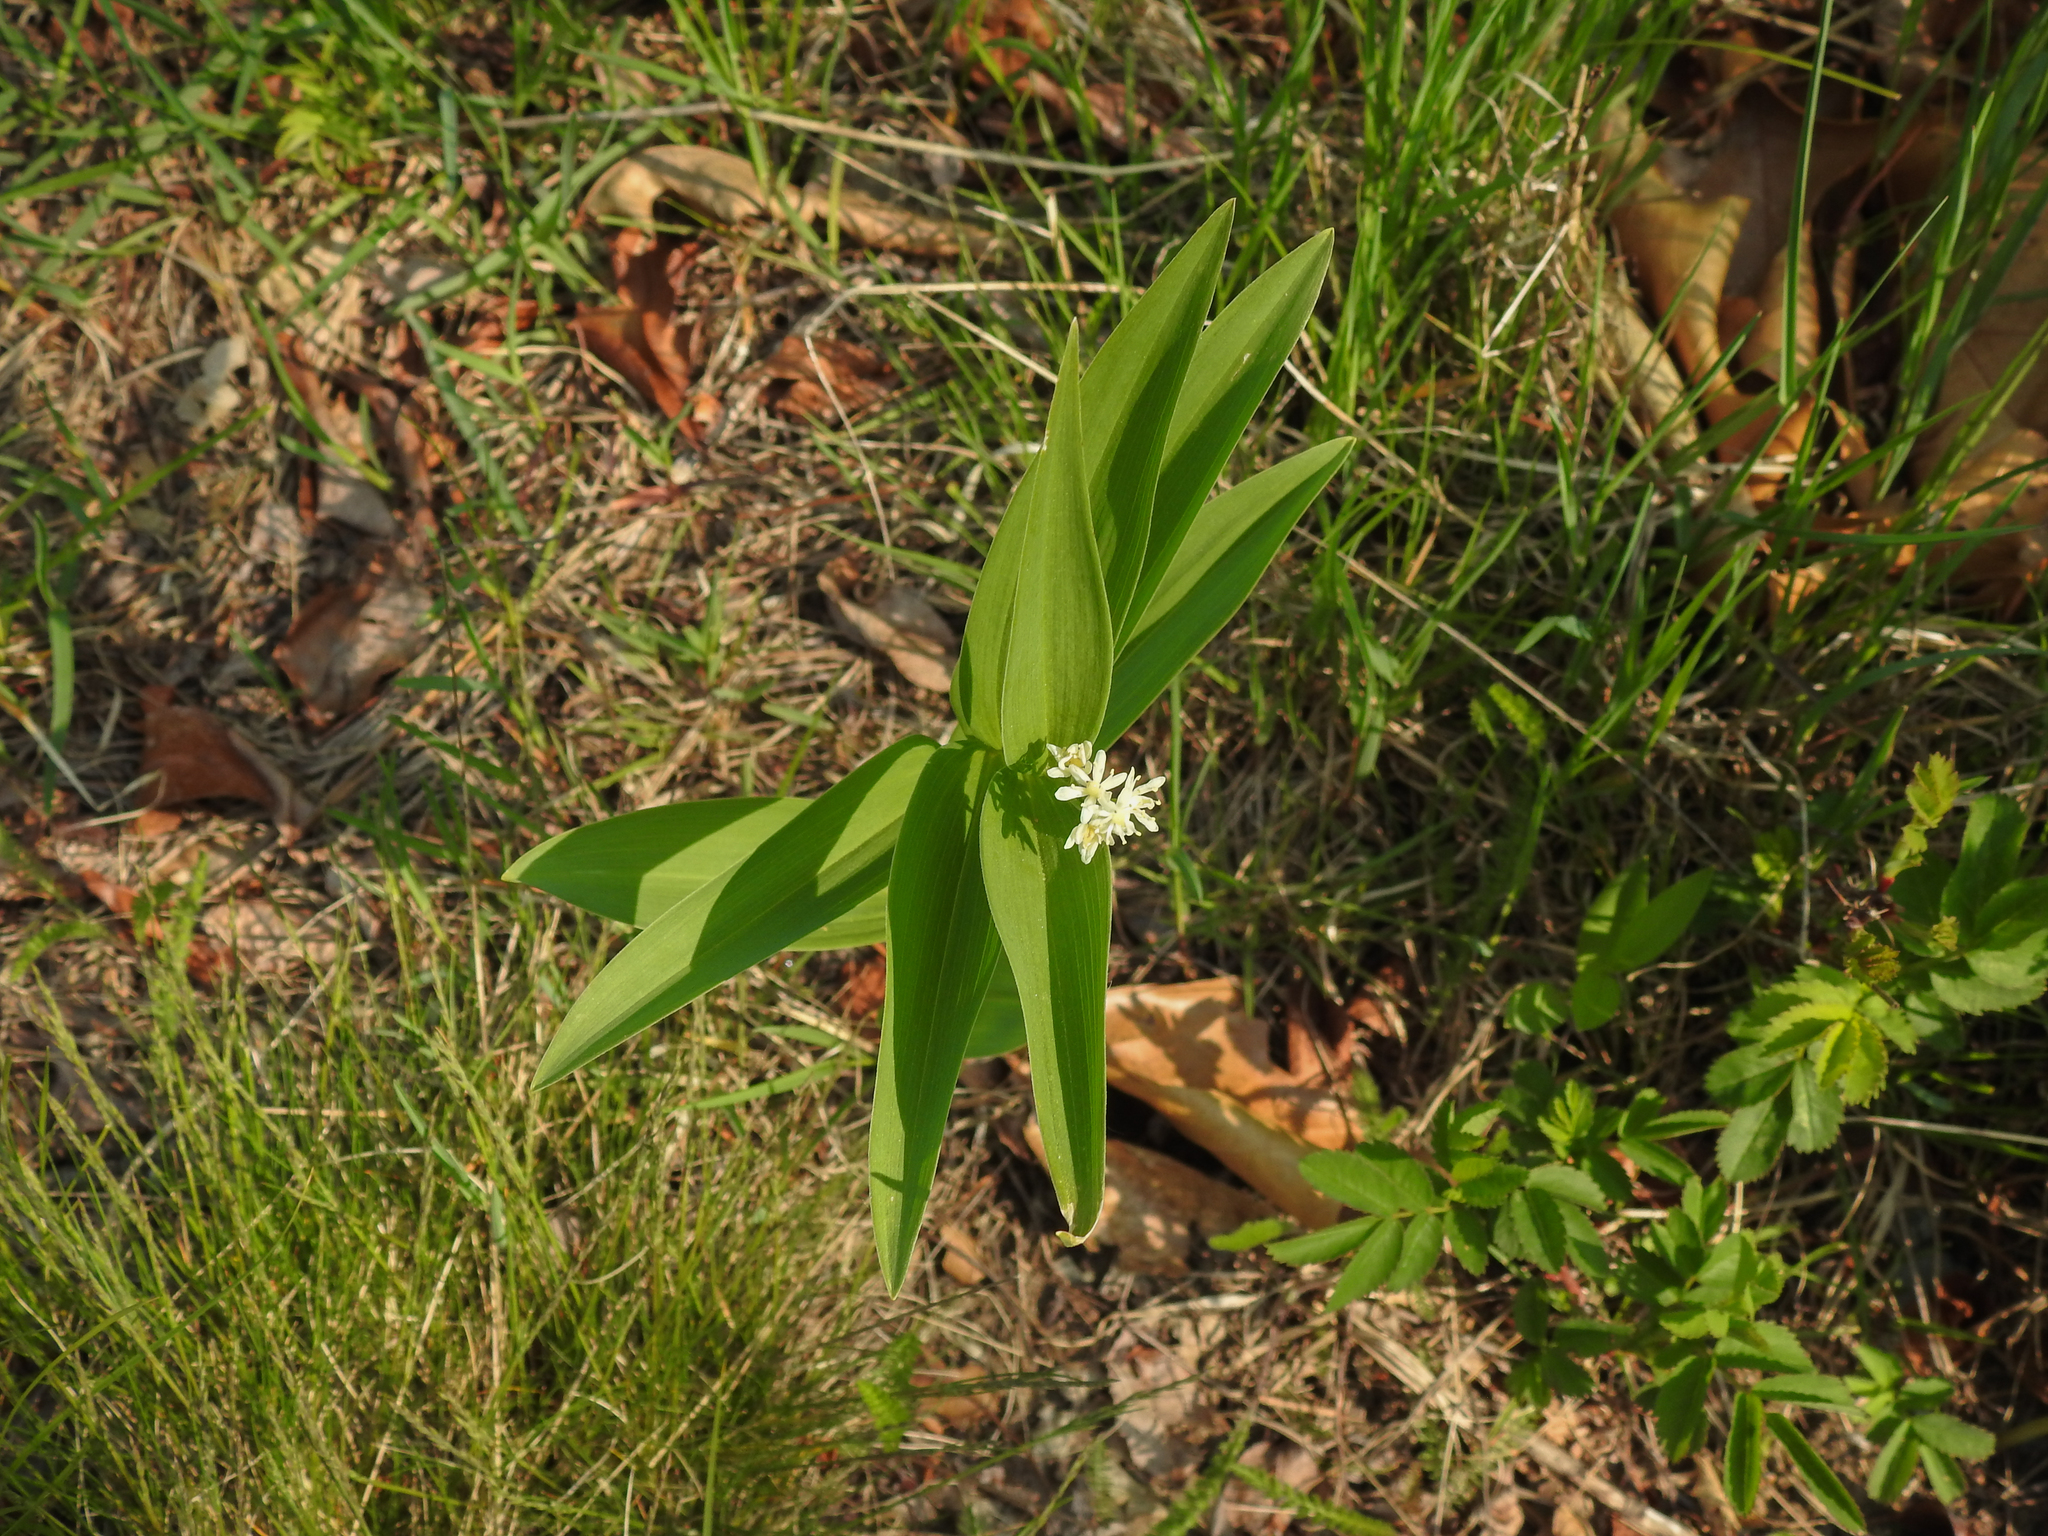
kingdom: Plantae
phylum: Tracheophyta
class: Liliopsida
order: Asparagales
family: Asparagaceae
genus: Maianthemum
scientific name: Maianthemum stellatum
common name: Little false solomon's seal
